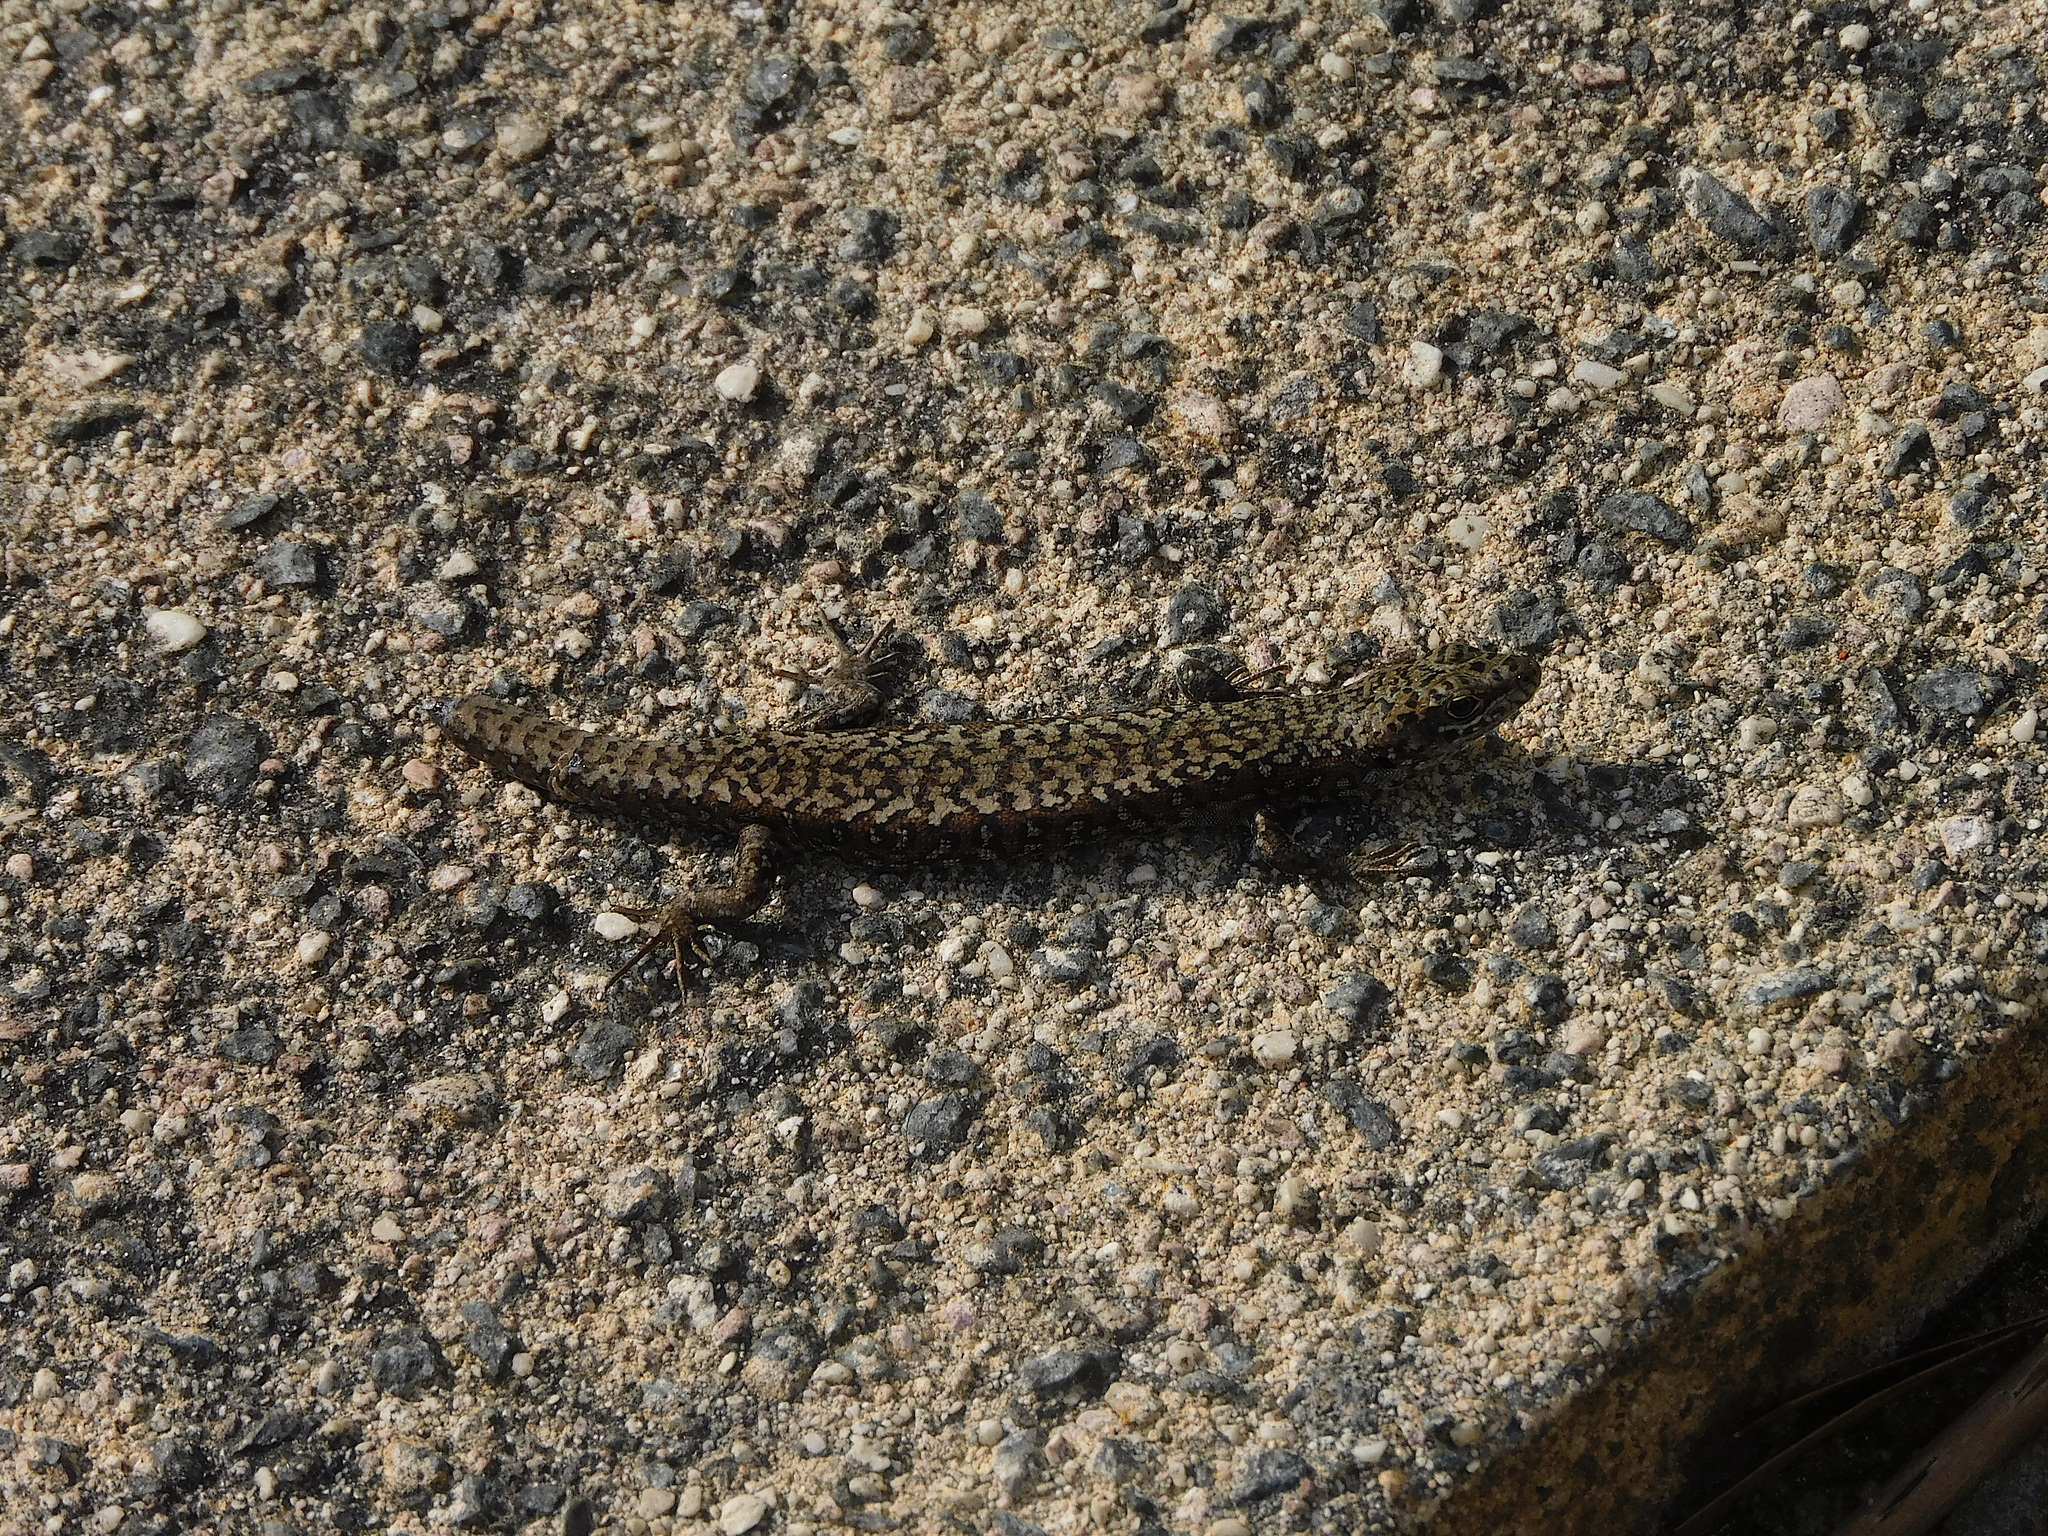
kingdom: Animalia
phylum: Chordata
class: Squamata
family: Scincidae
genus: Carinascincus
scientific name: Carinascincus ocellatus
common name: Ocellated cool-skink
